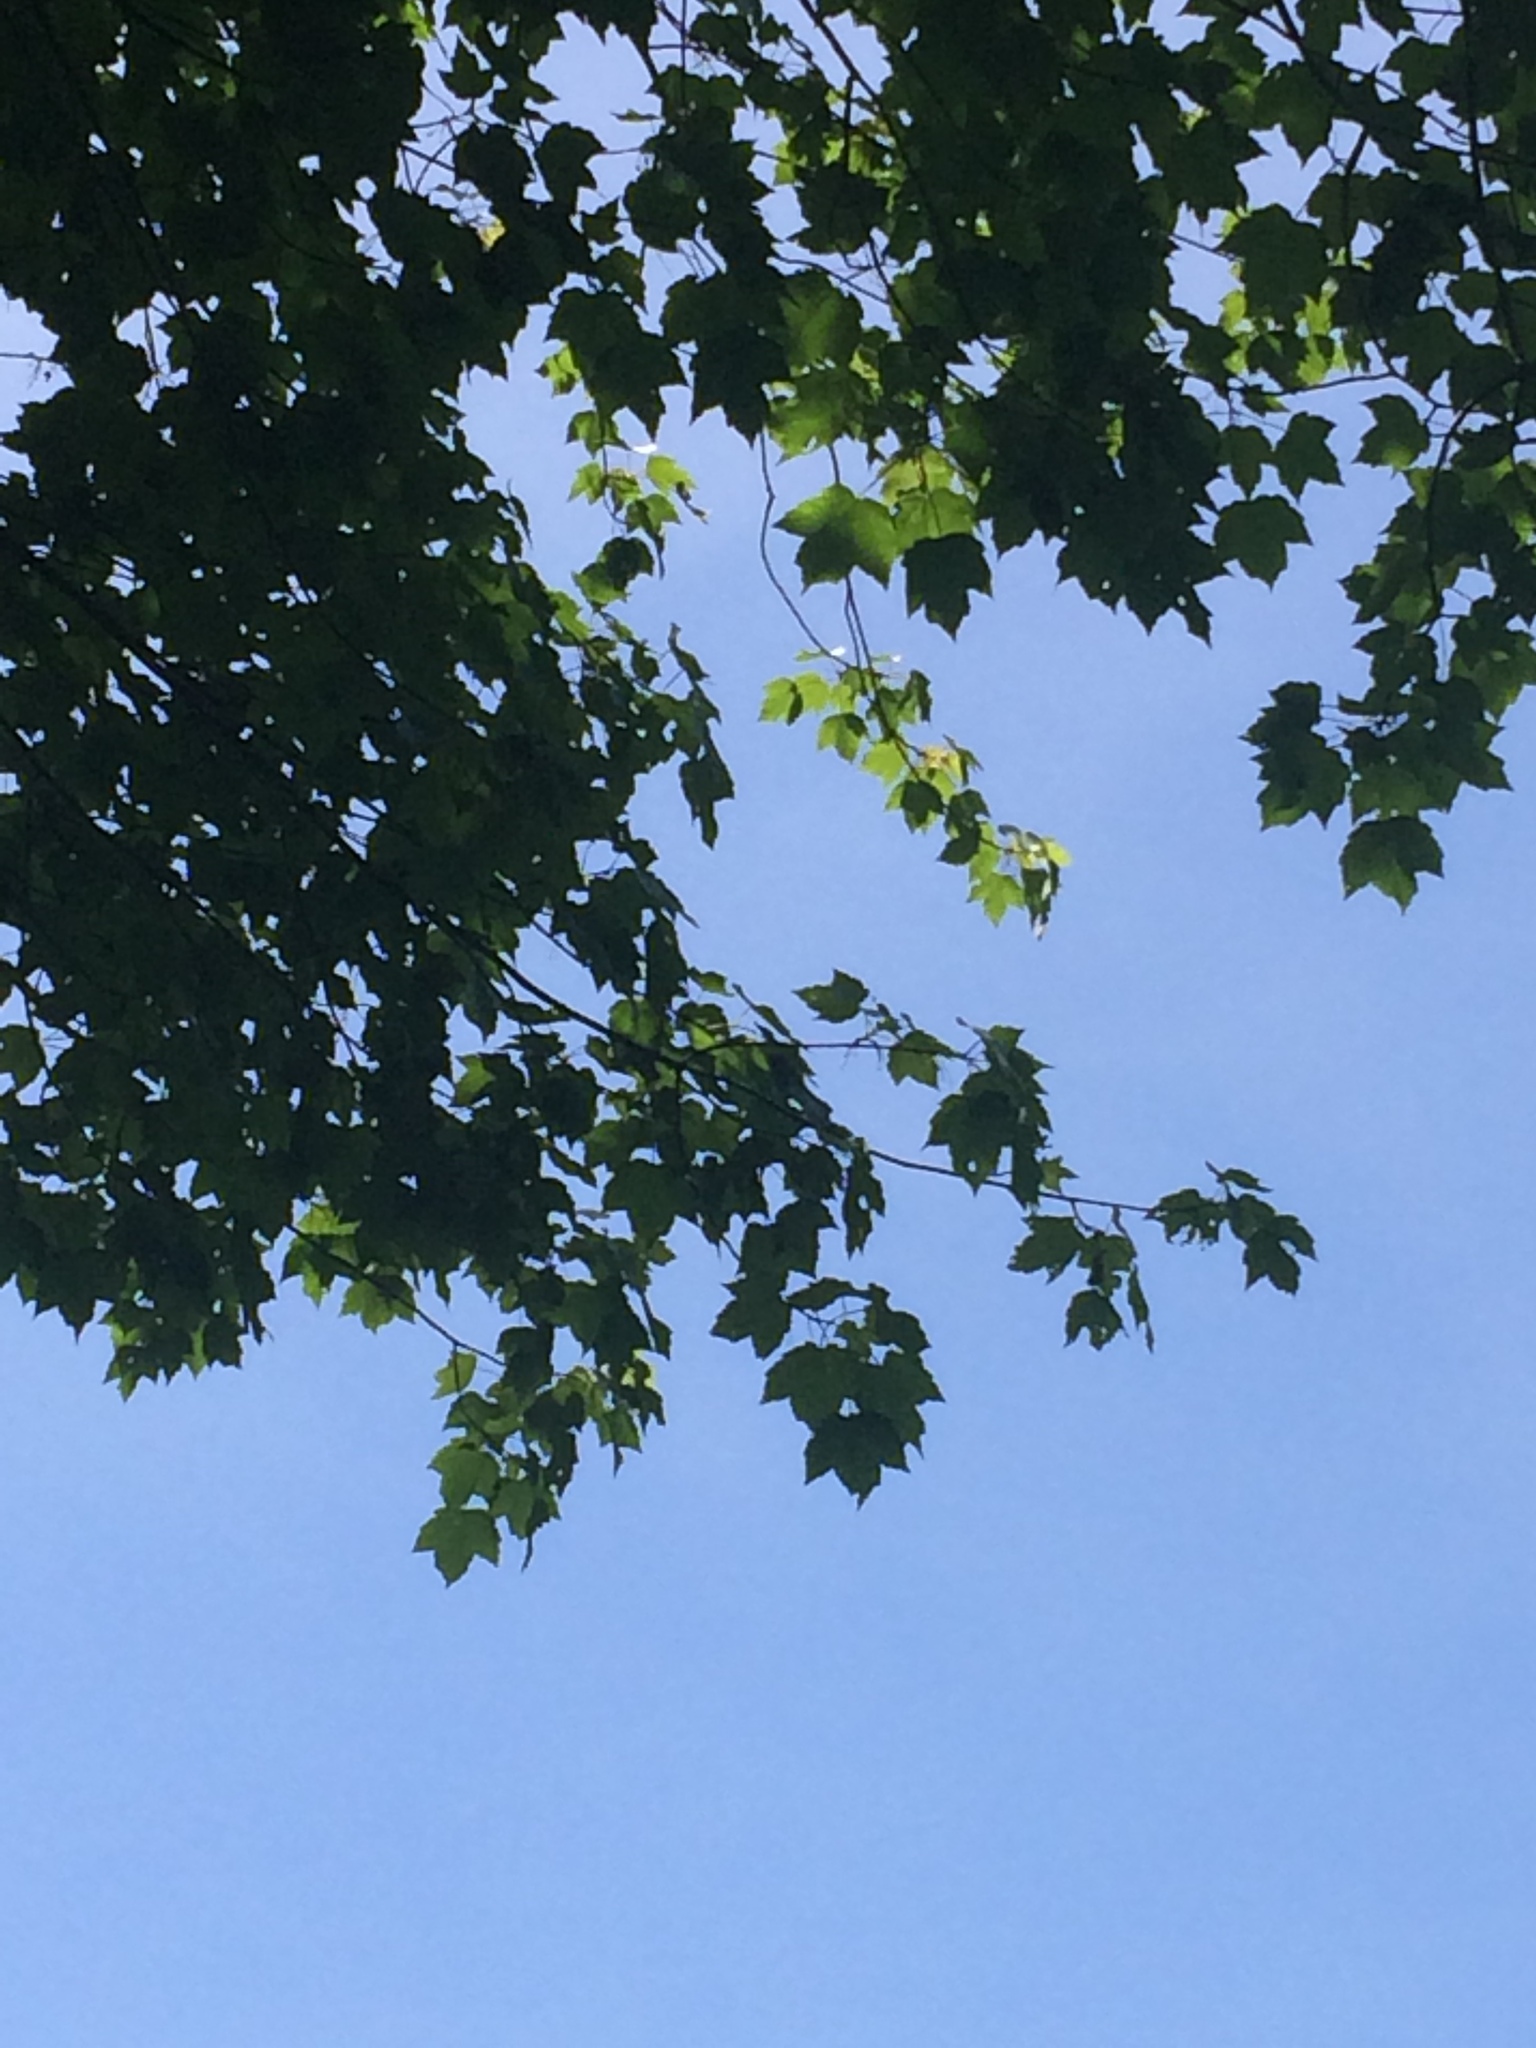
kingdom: Plantae
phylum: Tracheophyta
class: Magnoliopsida
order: Sapindales
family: Sapindaceae
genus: Acer
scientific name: Acer rubrum
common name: Red maple
